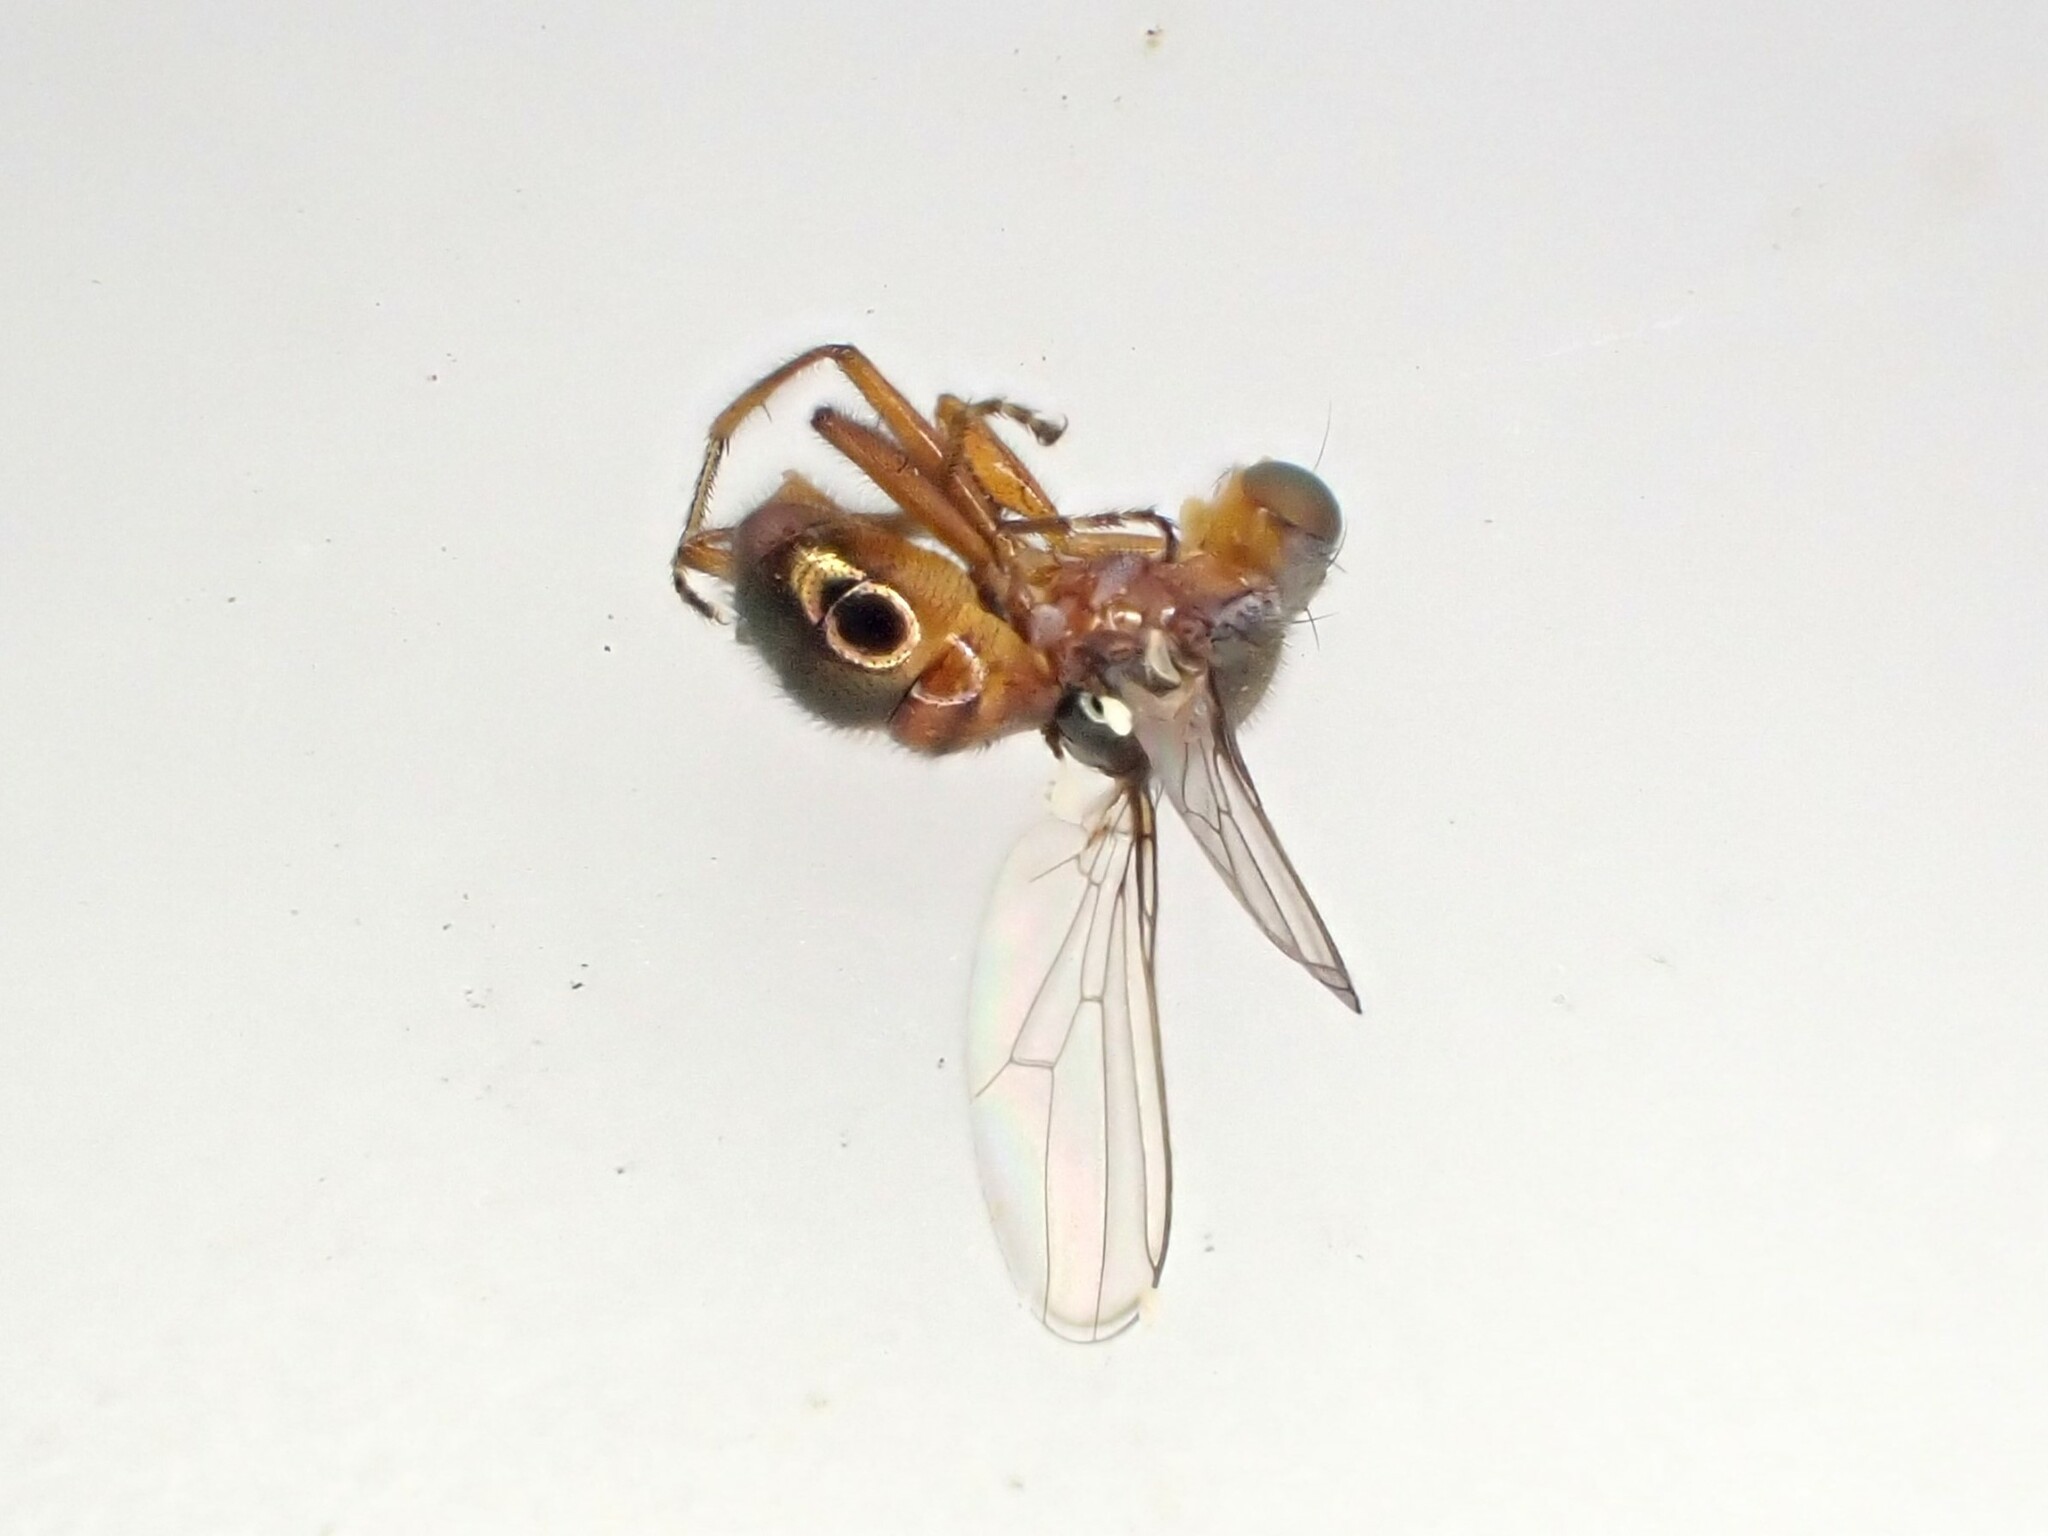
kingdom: Animalia
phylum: Arthropoda
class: Insecta
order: Diptera
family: Sepsidae
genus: Lasionemopoda
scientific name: Lasionemopoda hirsuta
